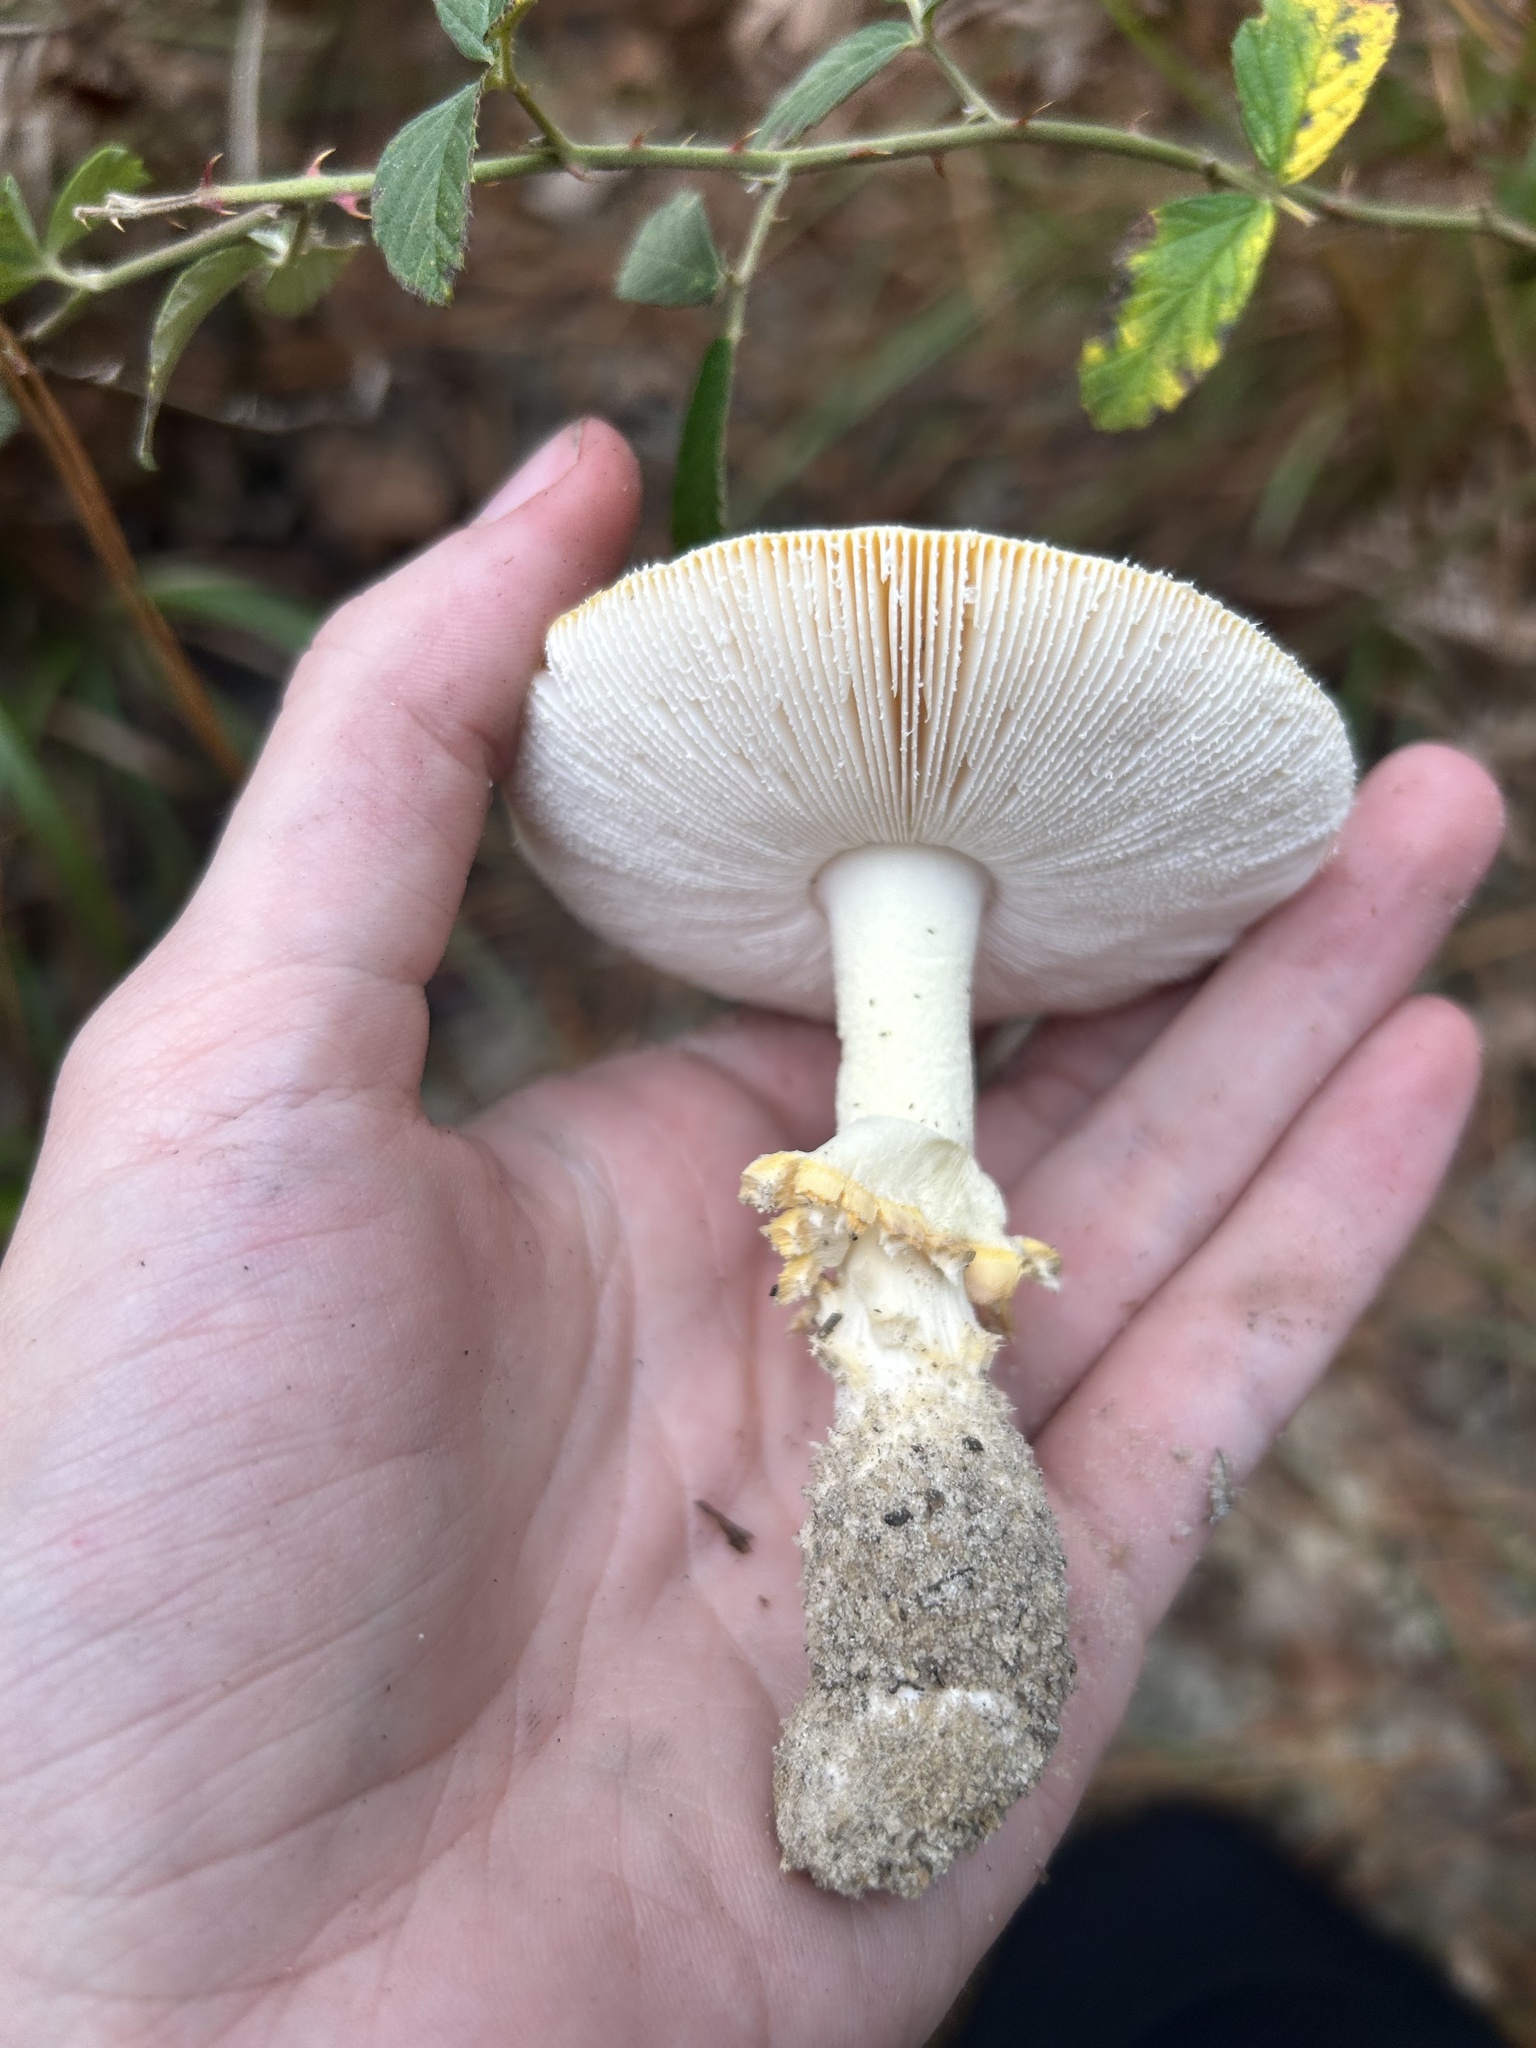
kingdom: Fungi
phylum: Basidiomycota
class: Agaricomycetes
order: Agaricales
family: Amanitaceae
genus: Amanita
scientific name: Amanita persicina
